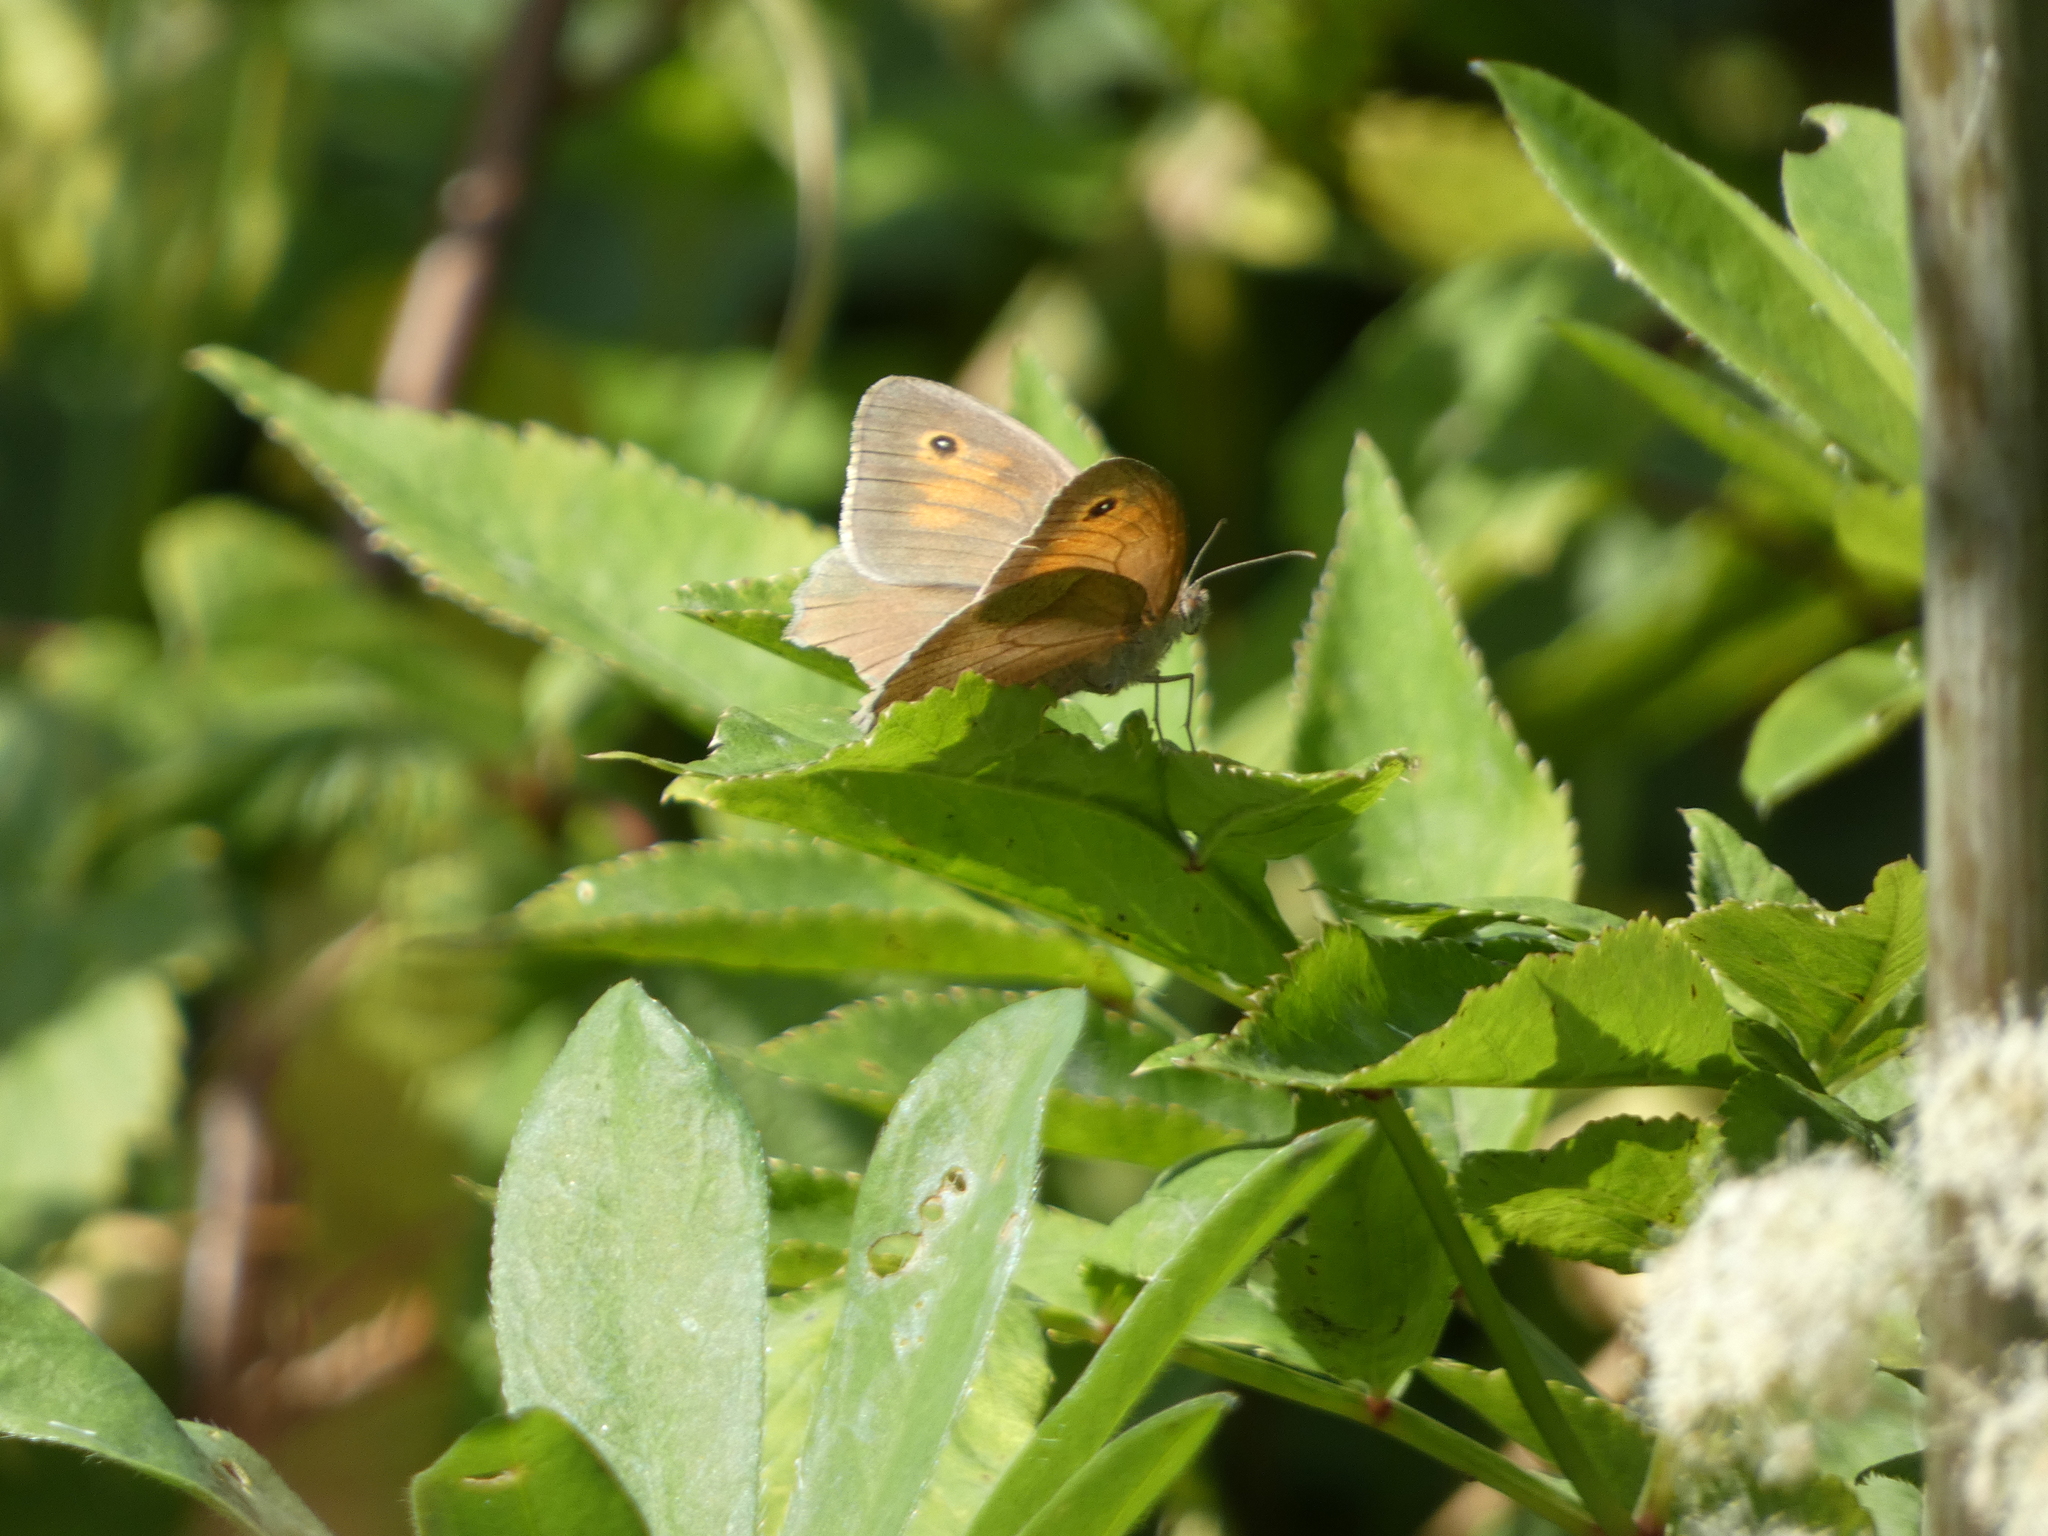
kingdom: Animalia
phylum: Arthropoda
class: Insecta
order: Lepidoptera
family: Nymphalidae
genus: Maniola
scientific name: Maniola jurtina
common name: Meadow brown
